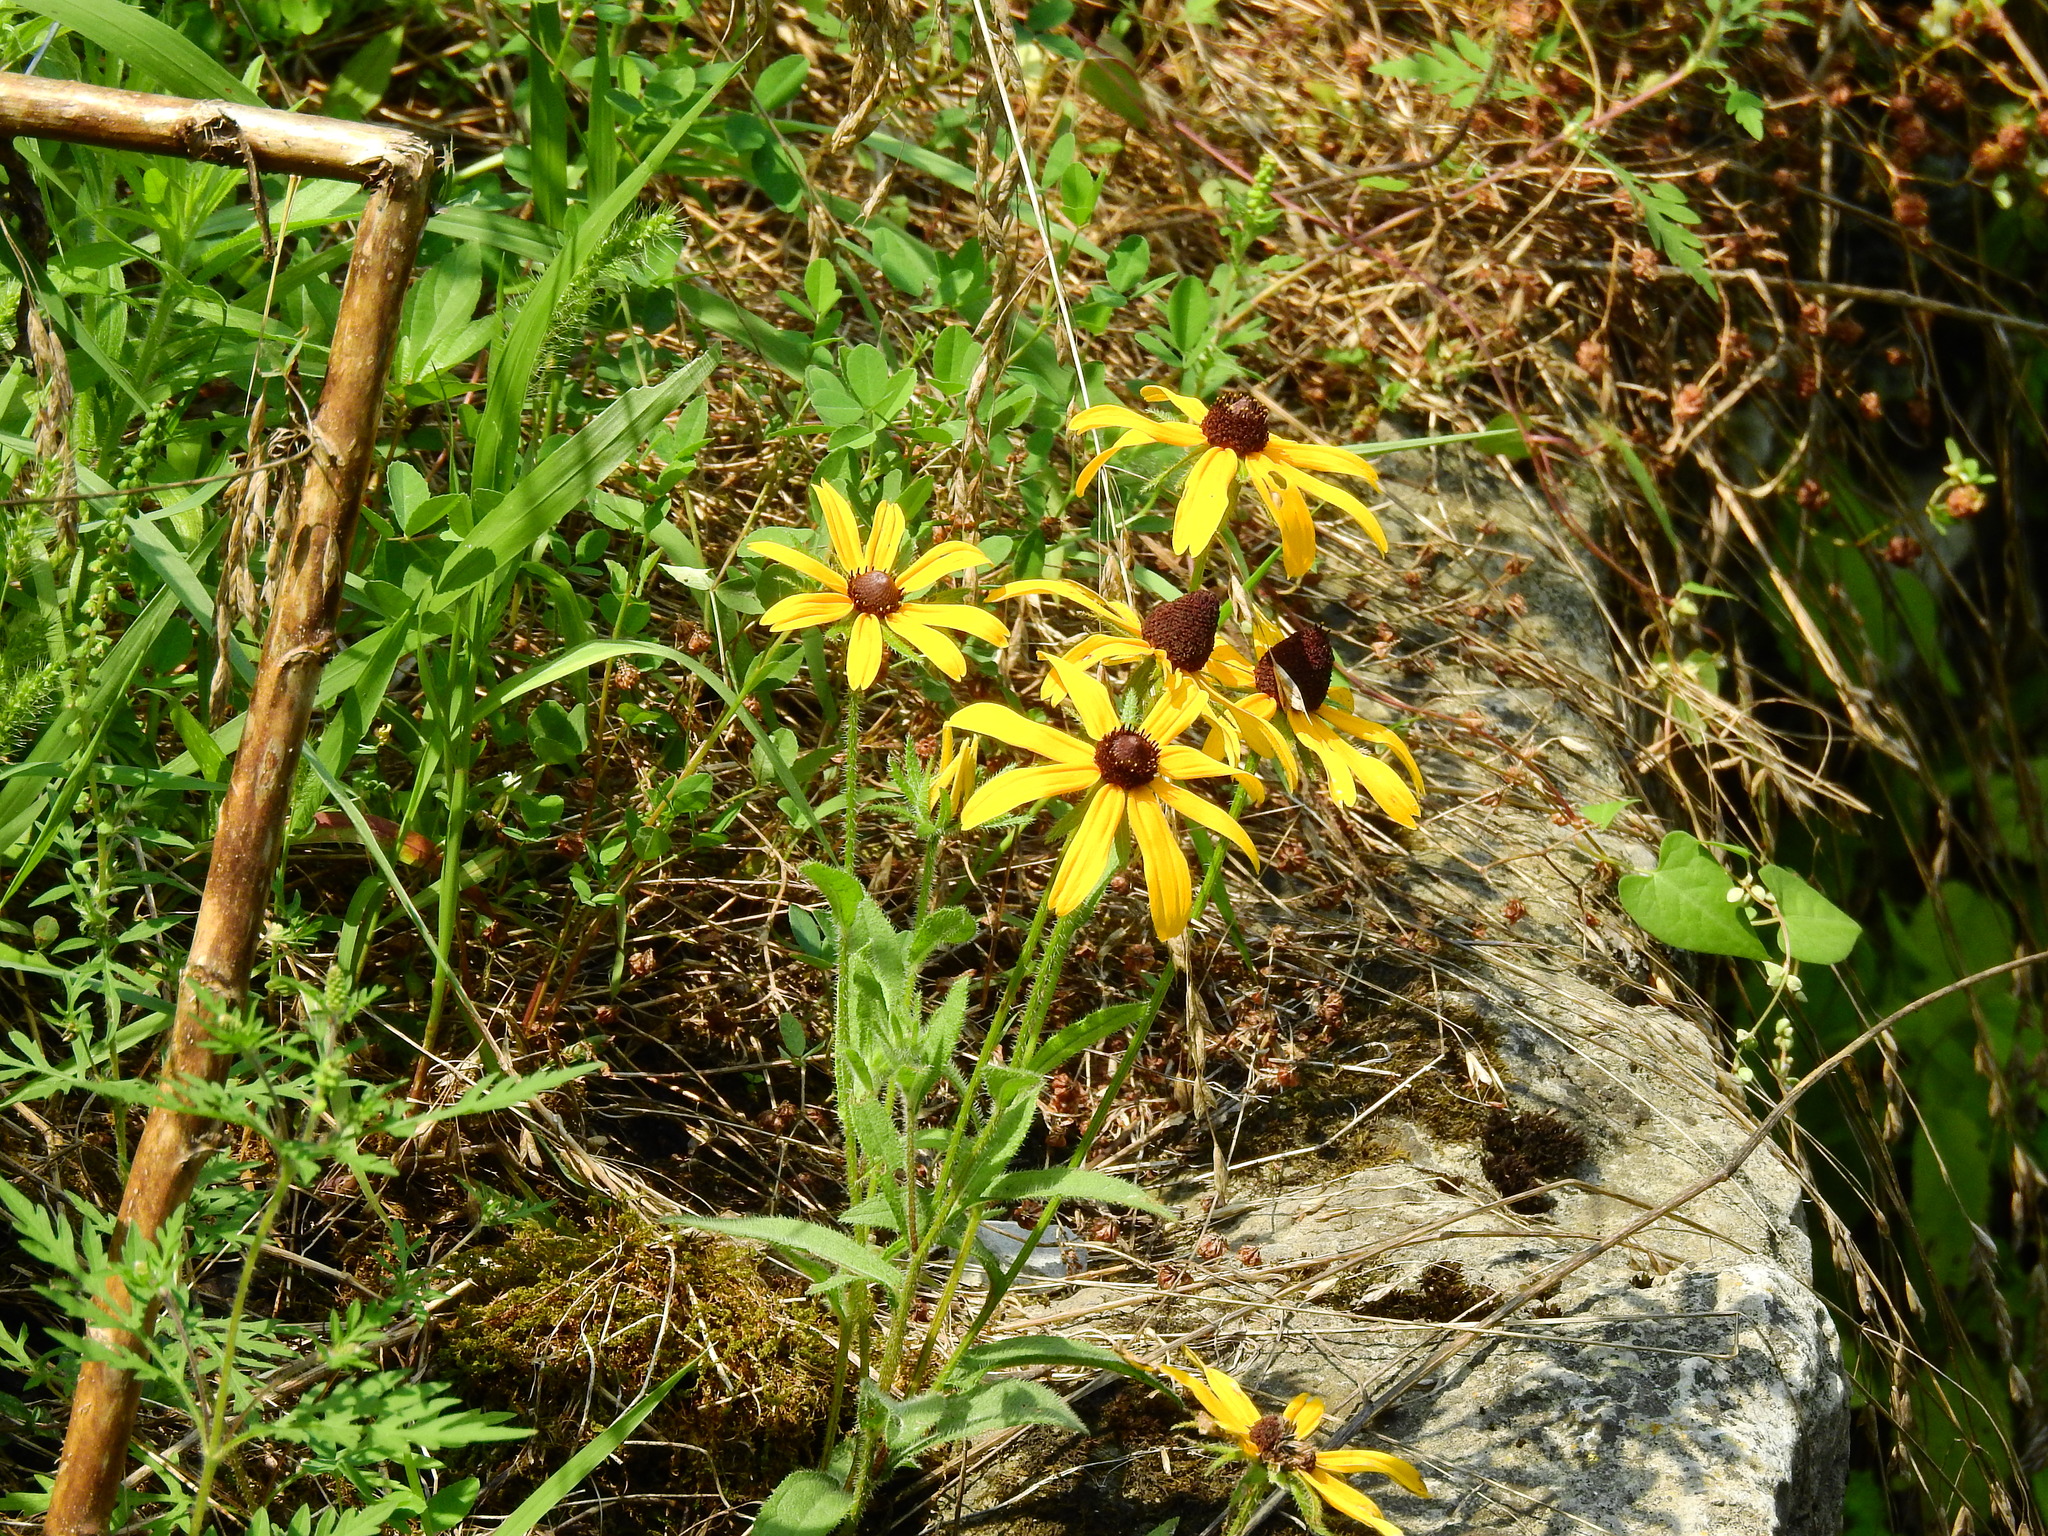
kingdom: Plantae
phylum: Tracheophyta
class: Magnoliopsida
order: Asterales
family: Asteraceae
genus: Rudbeckia
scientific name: Rudbeckia hirta
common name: Black-eyed-susan
